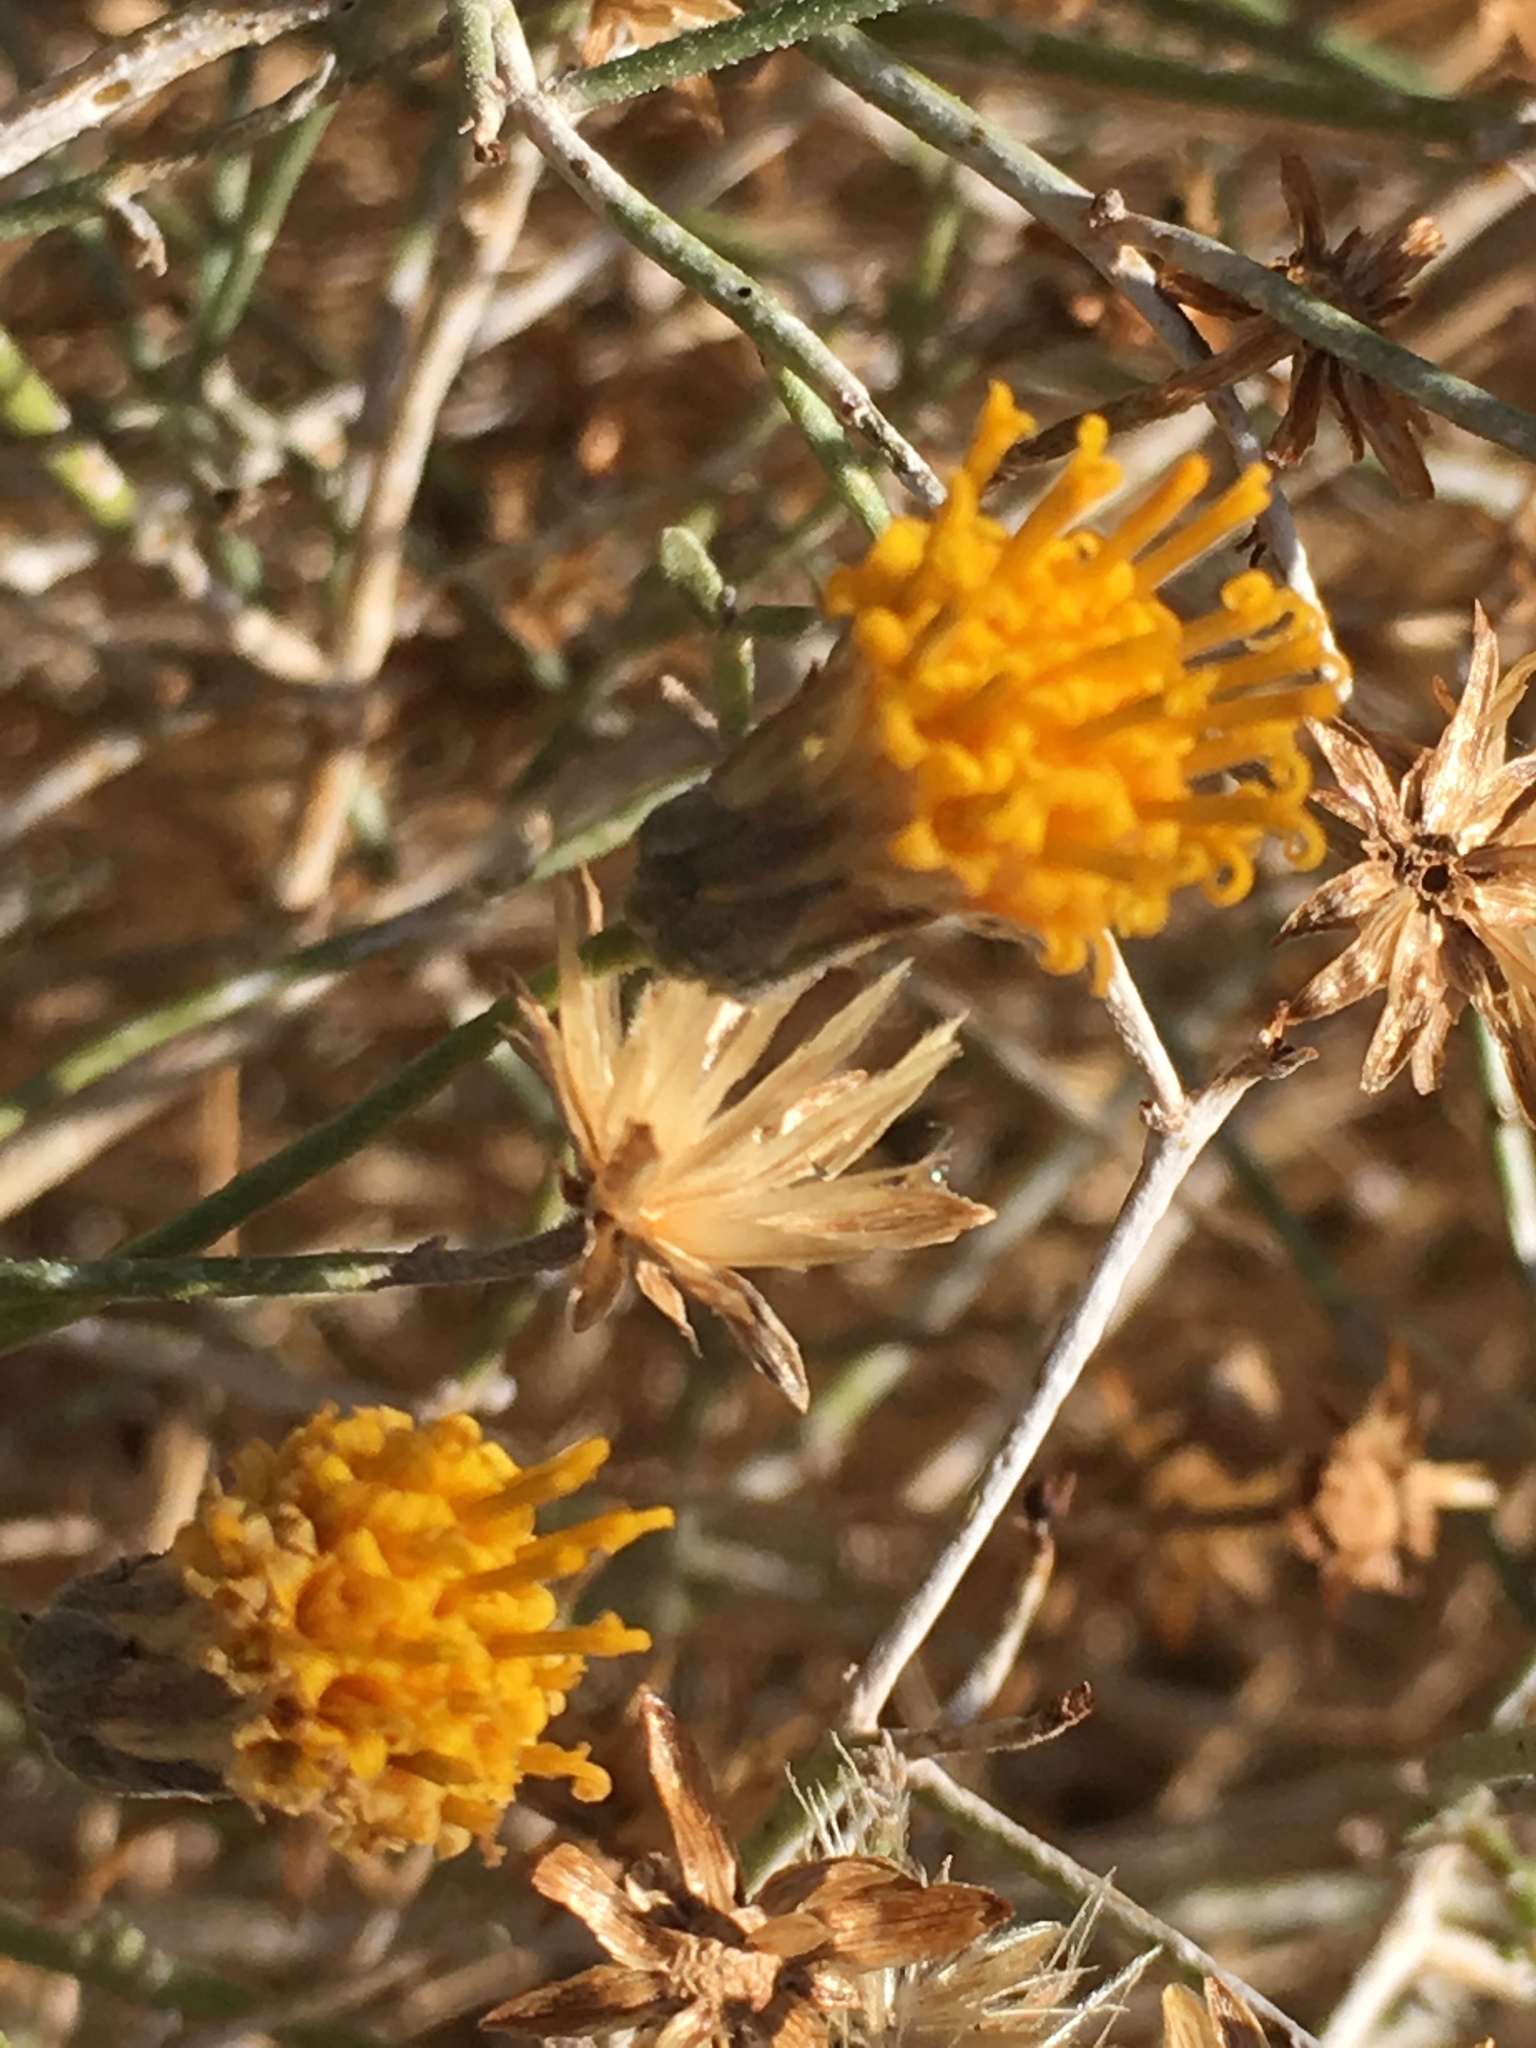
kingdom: Plantae
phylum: Tracheophyta
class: Magnoliopsida
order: Asterales
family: Asteraceae
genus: Bebbia
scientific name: Bebbia juncea
